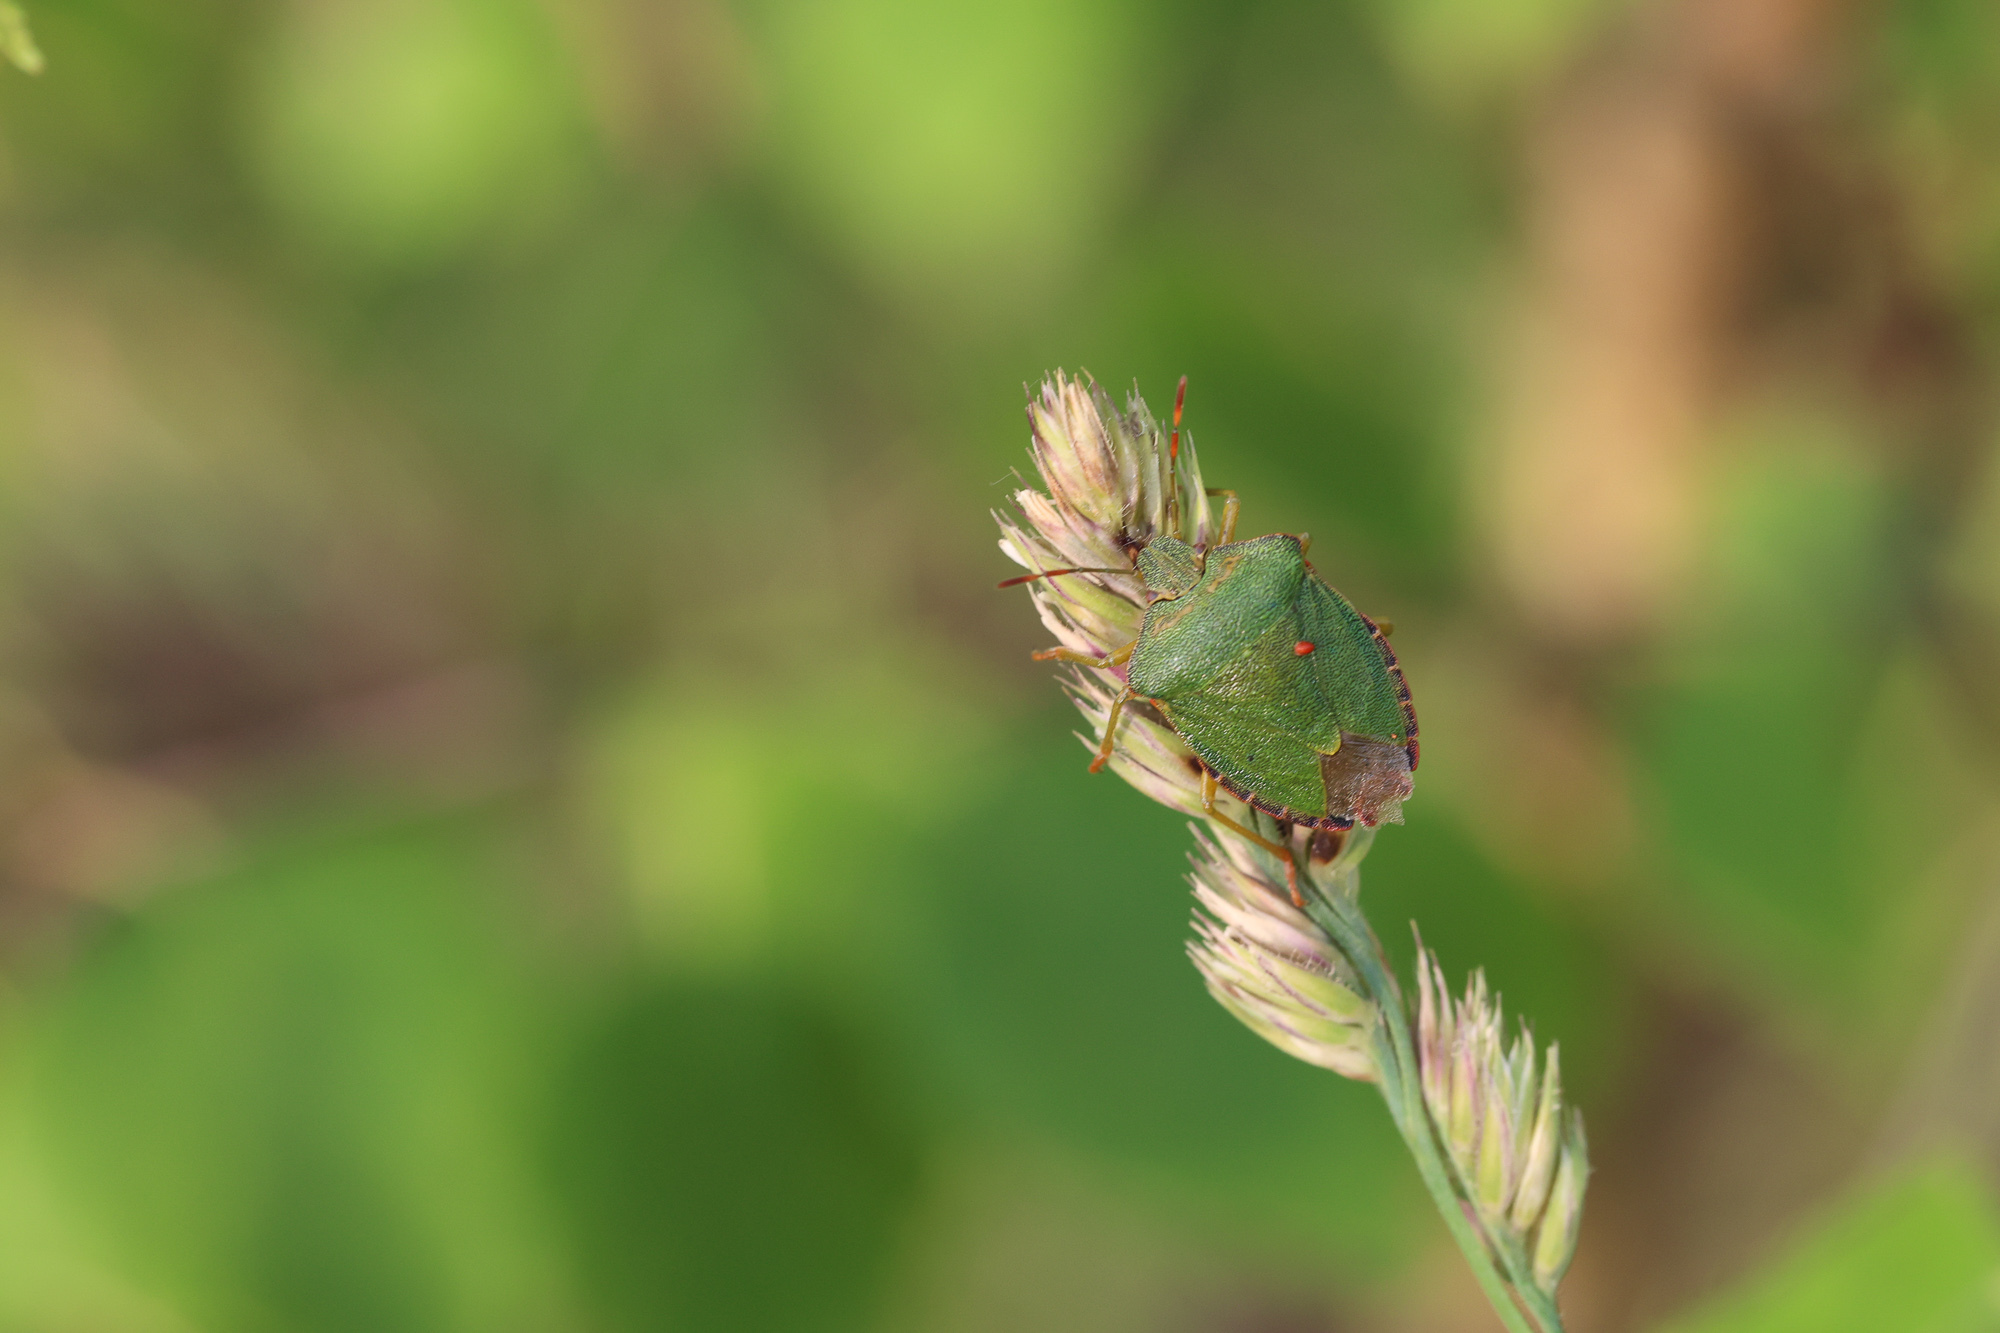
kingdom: Animalia
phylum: Arthropoda
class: Insecta
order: Hemiptera
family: Pentatomidae
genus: Palomena
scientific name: Palomena prasina
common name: Green shieldbug
